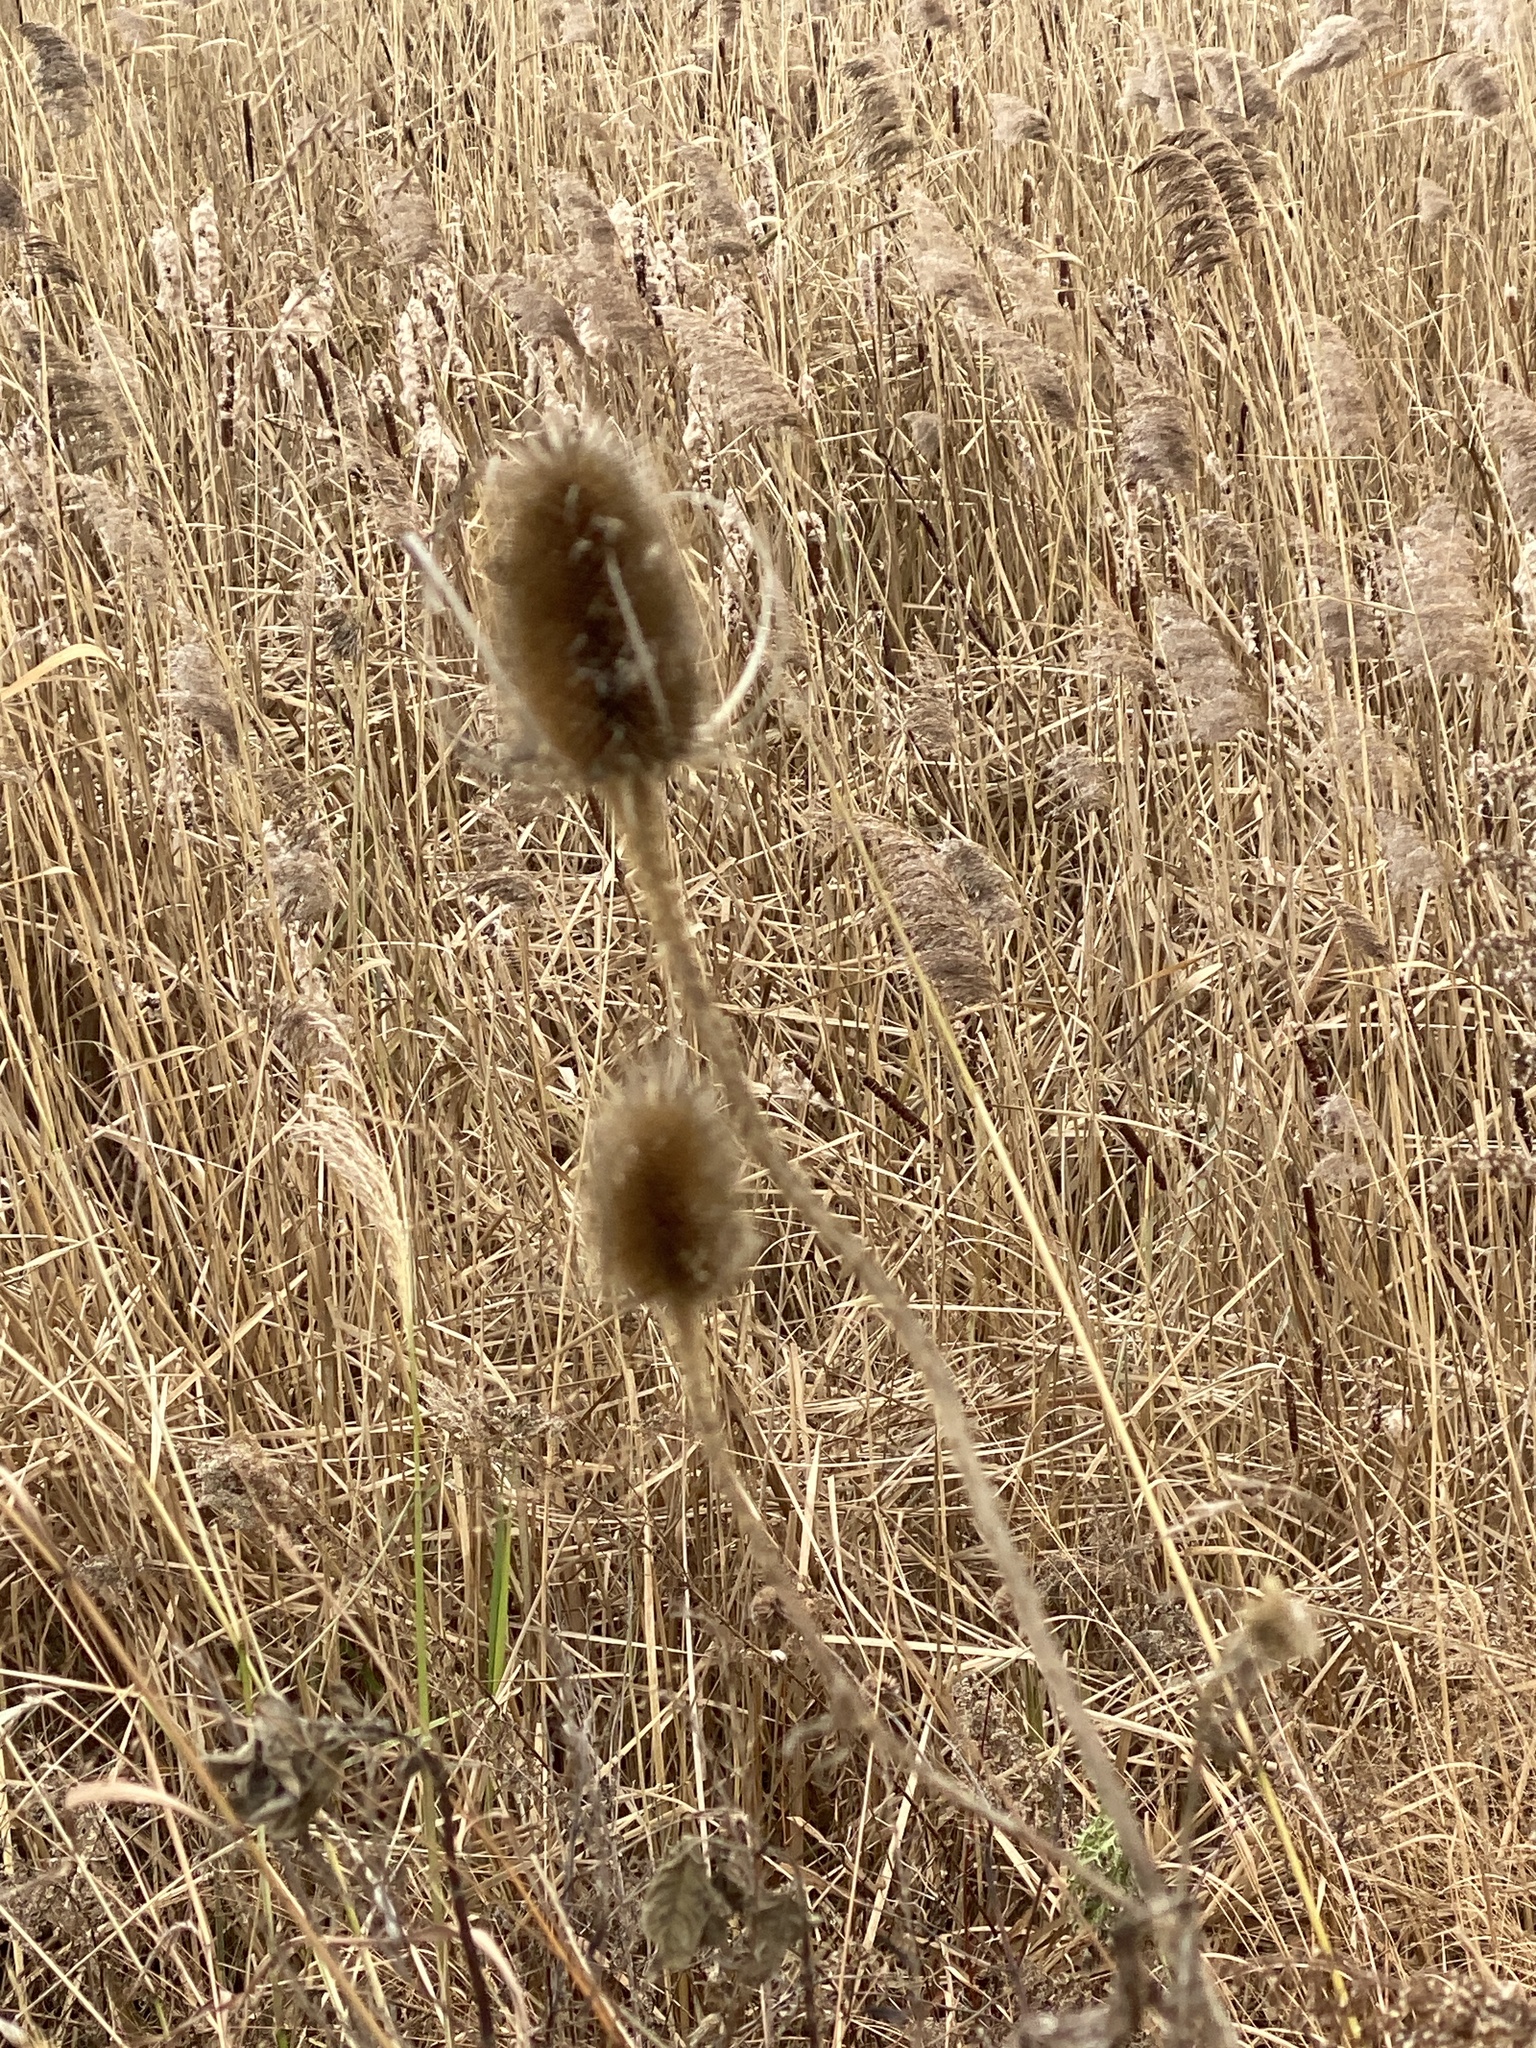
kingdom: Plantae
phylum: Tracheophyta
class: Magnoliopsida
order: Dipsacales
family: Caprifoliaceae
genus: Dipsacus
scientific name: Dipsacus fullonum
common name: Teasel
